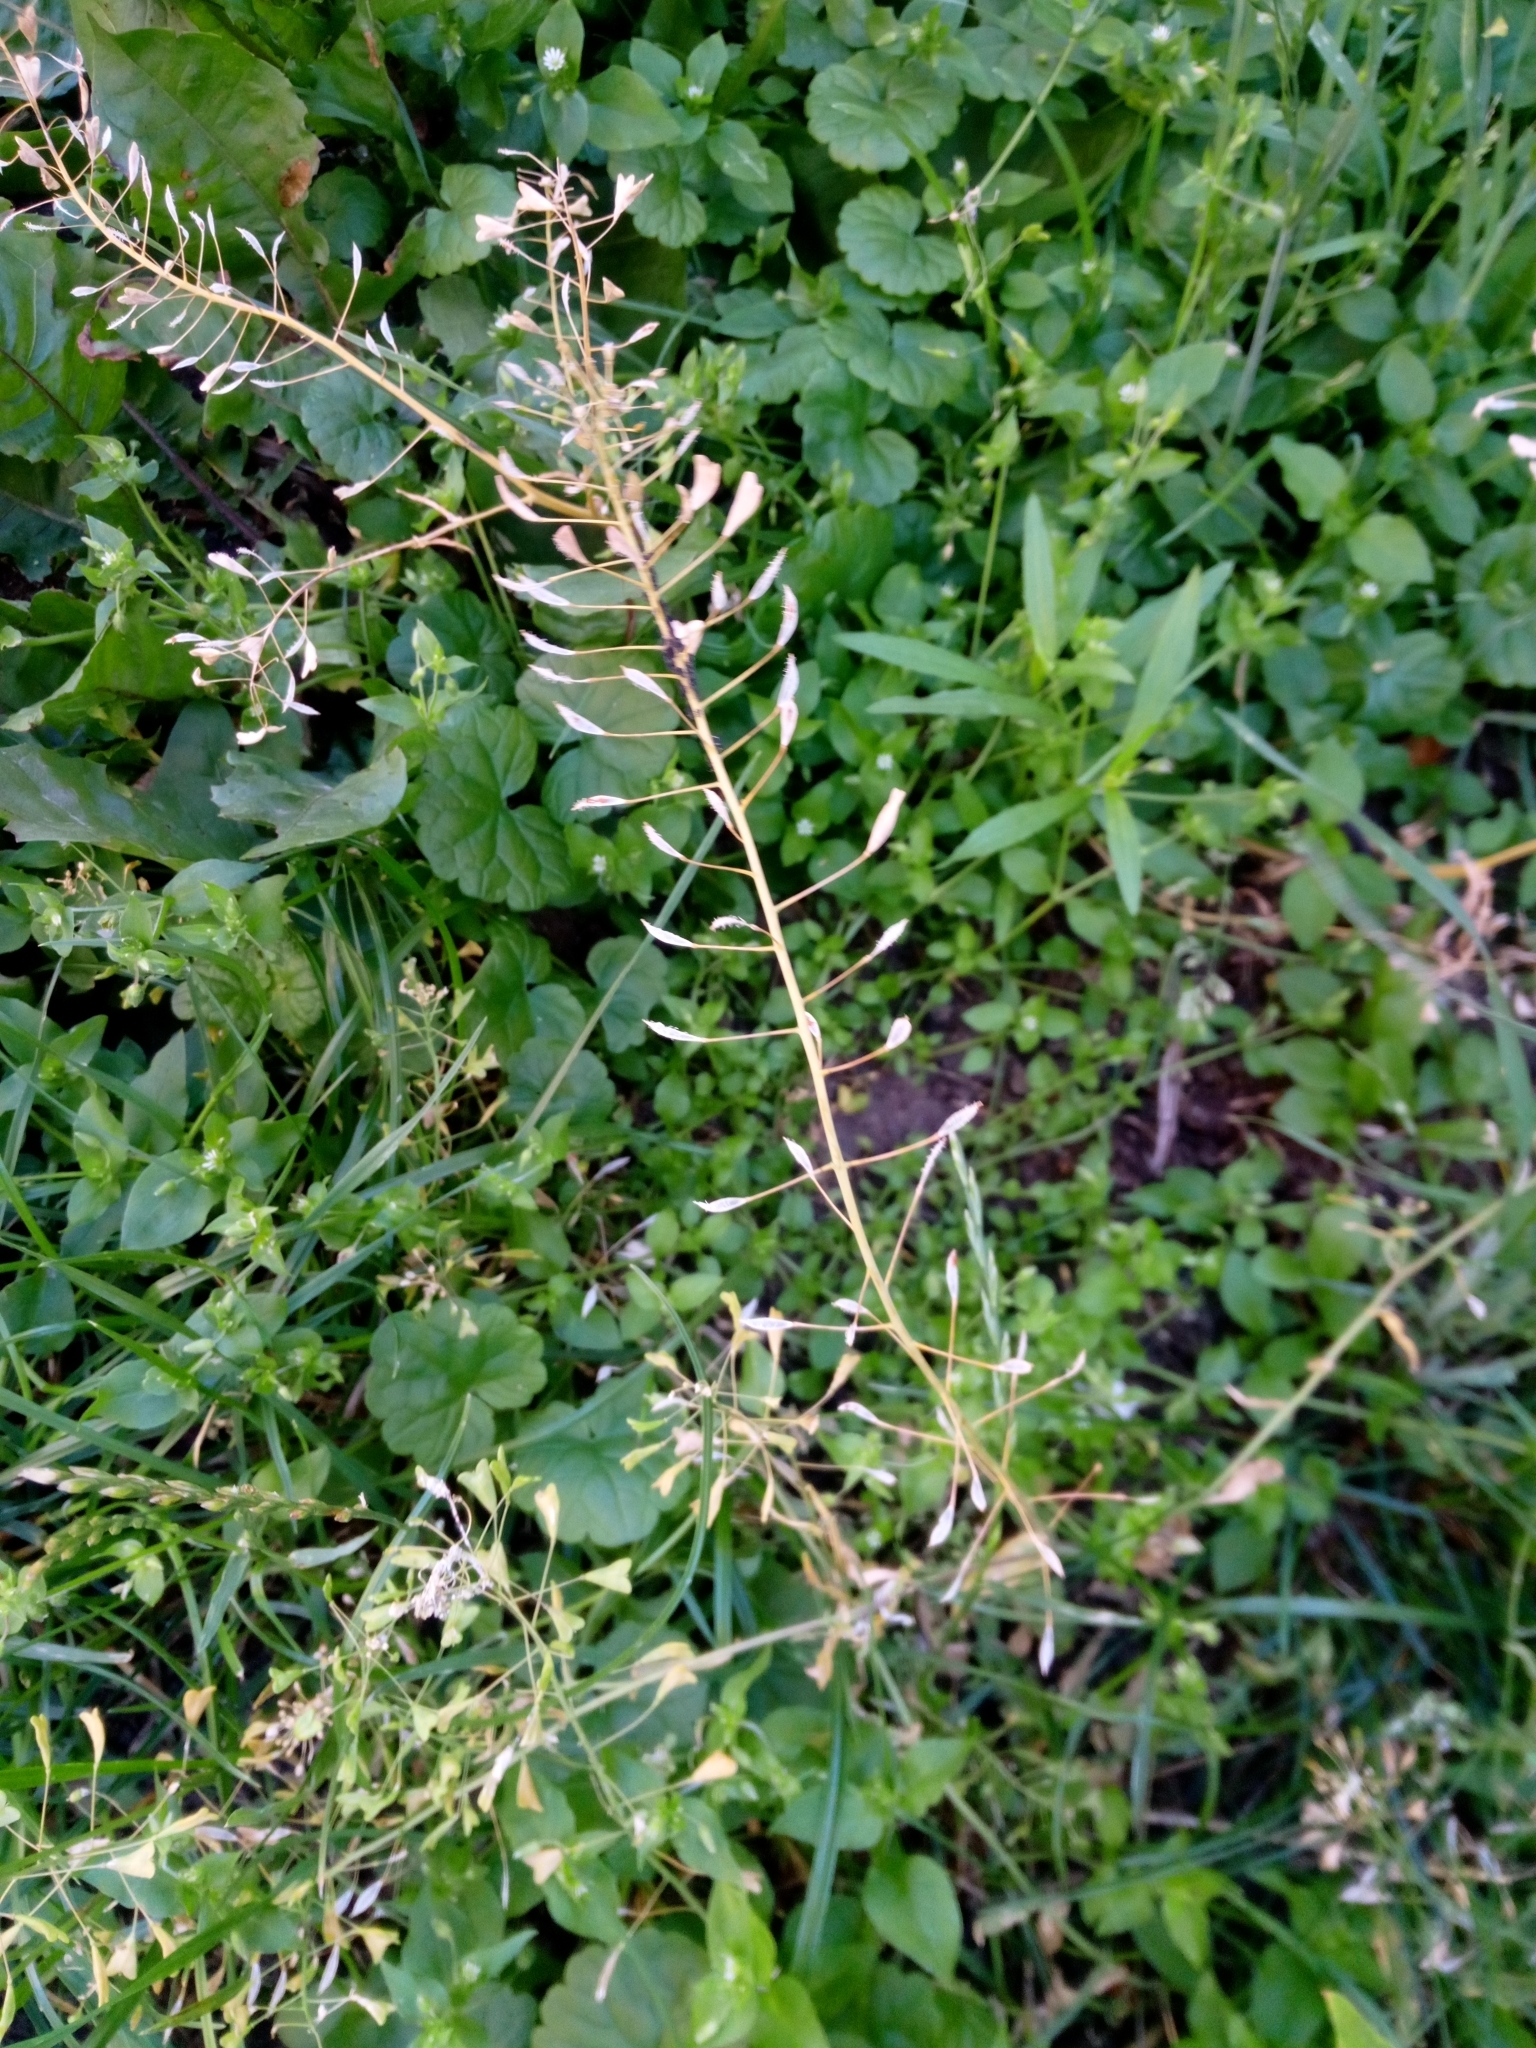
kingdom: Plantae
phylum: Tracheophyta
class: Magnoliopsida
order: Brassicales
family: Brassicaceae
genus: Capsella
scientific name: Capsella bursa-pastoris
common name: Shepherd's purse
